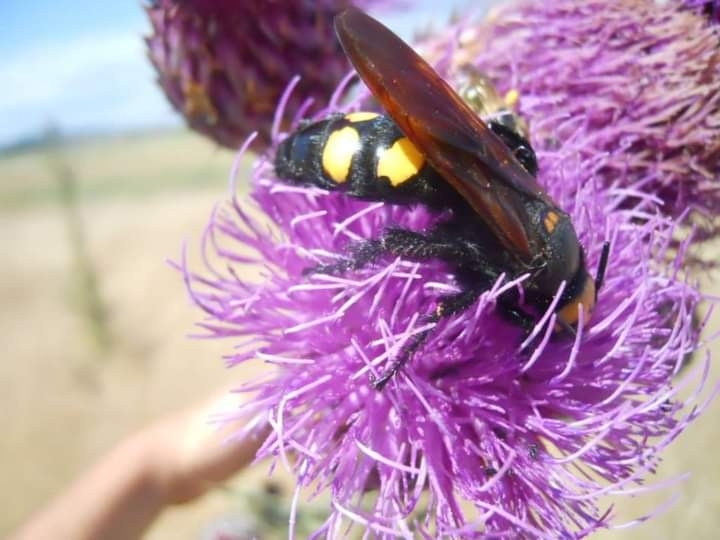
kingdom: Animalia
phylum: Arthropoda
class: Insecta
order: Hymenoptera
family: Scoliidae
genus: Megascolia
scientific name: Megascolia maculata
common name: Mammoth wasp
